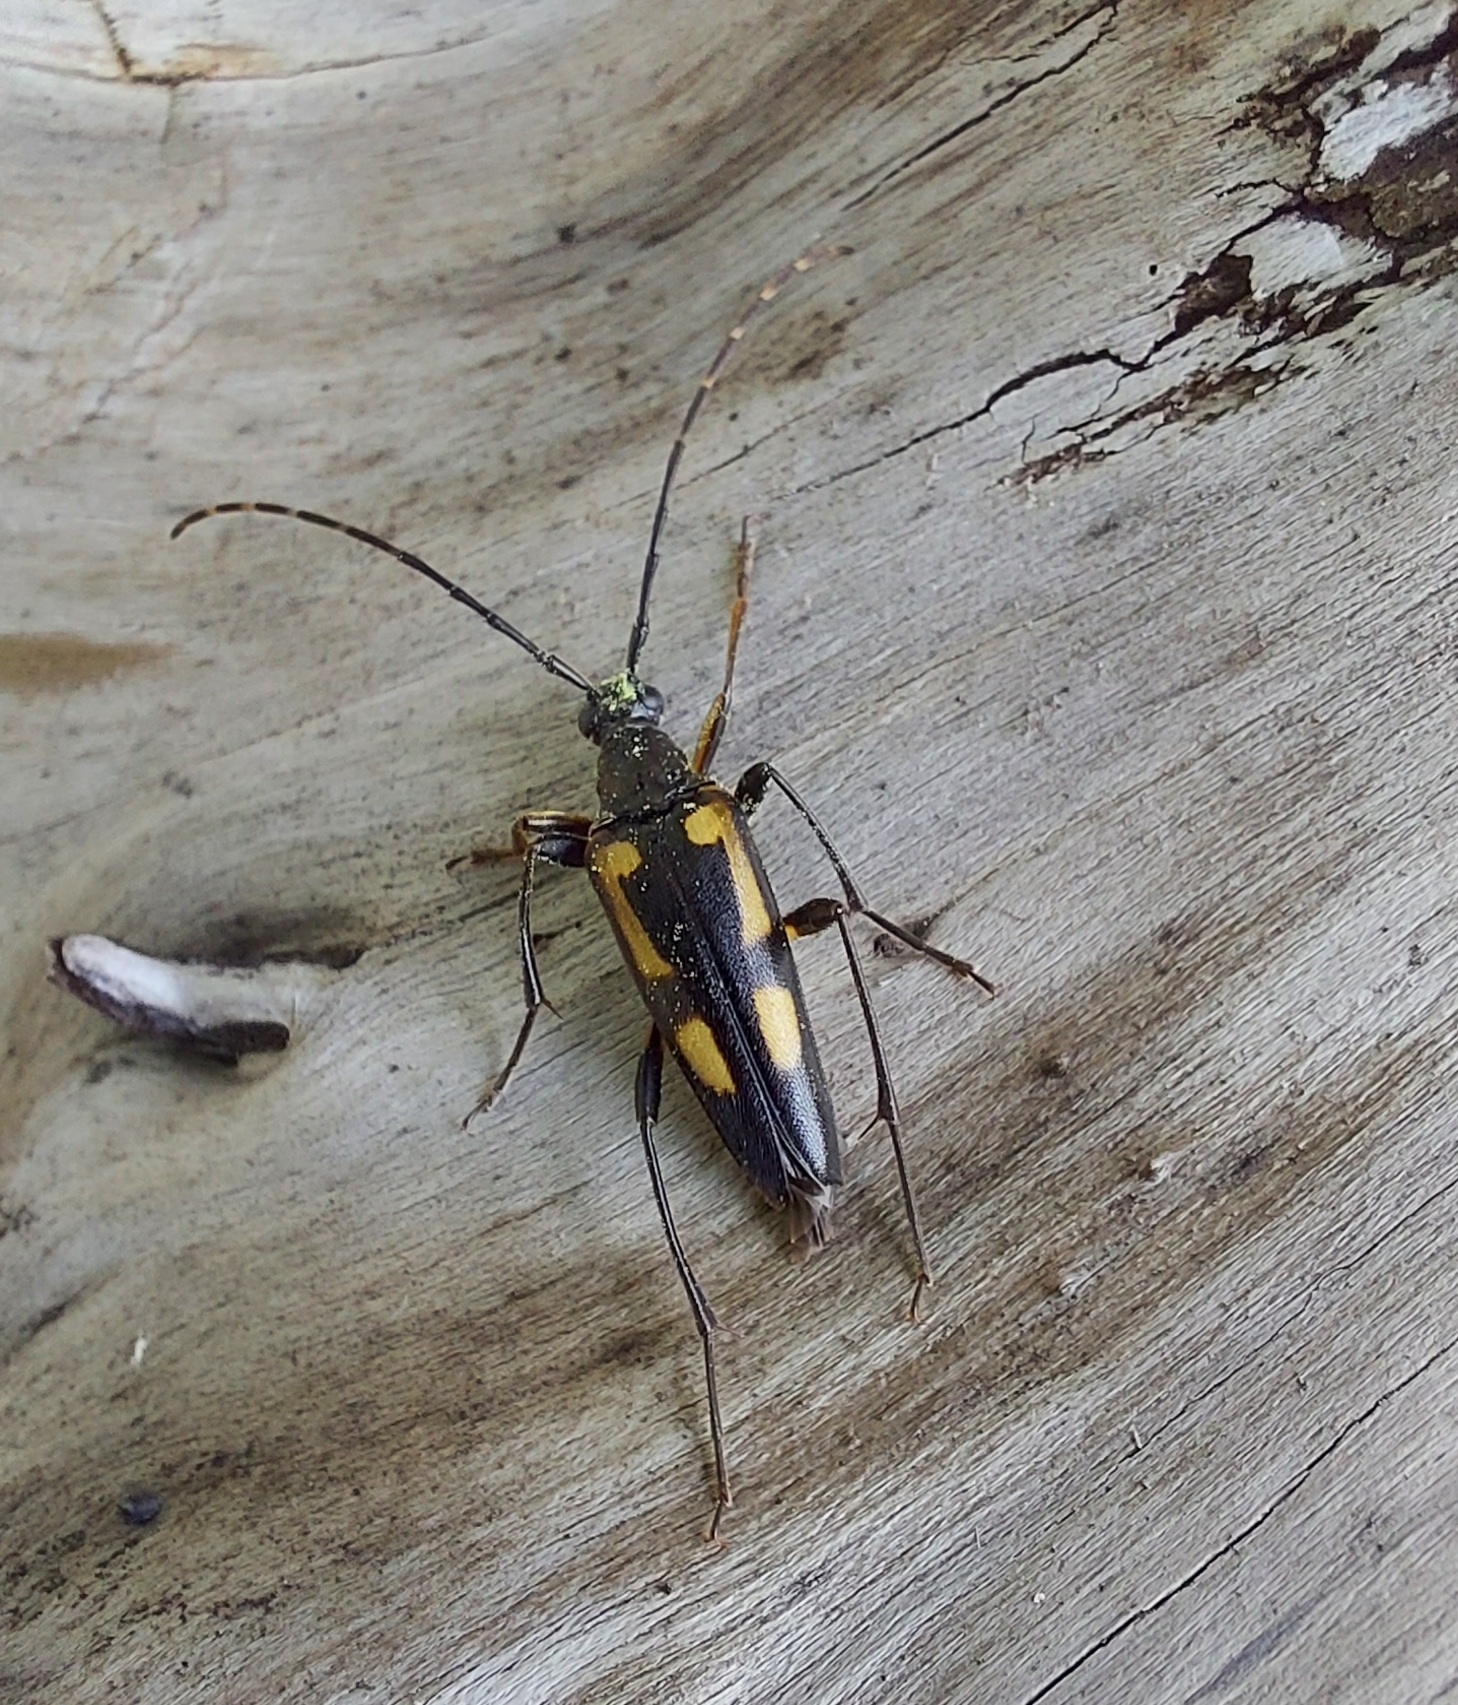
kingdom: Animalia
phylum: Arthropoda
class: Insecta
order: Coleoptera
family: Cerambycidae
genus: Etorofus
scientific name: Etorofus
